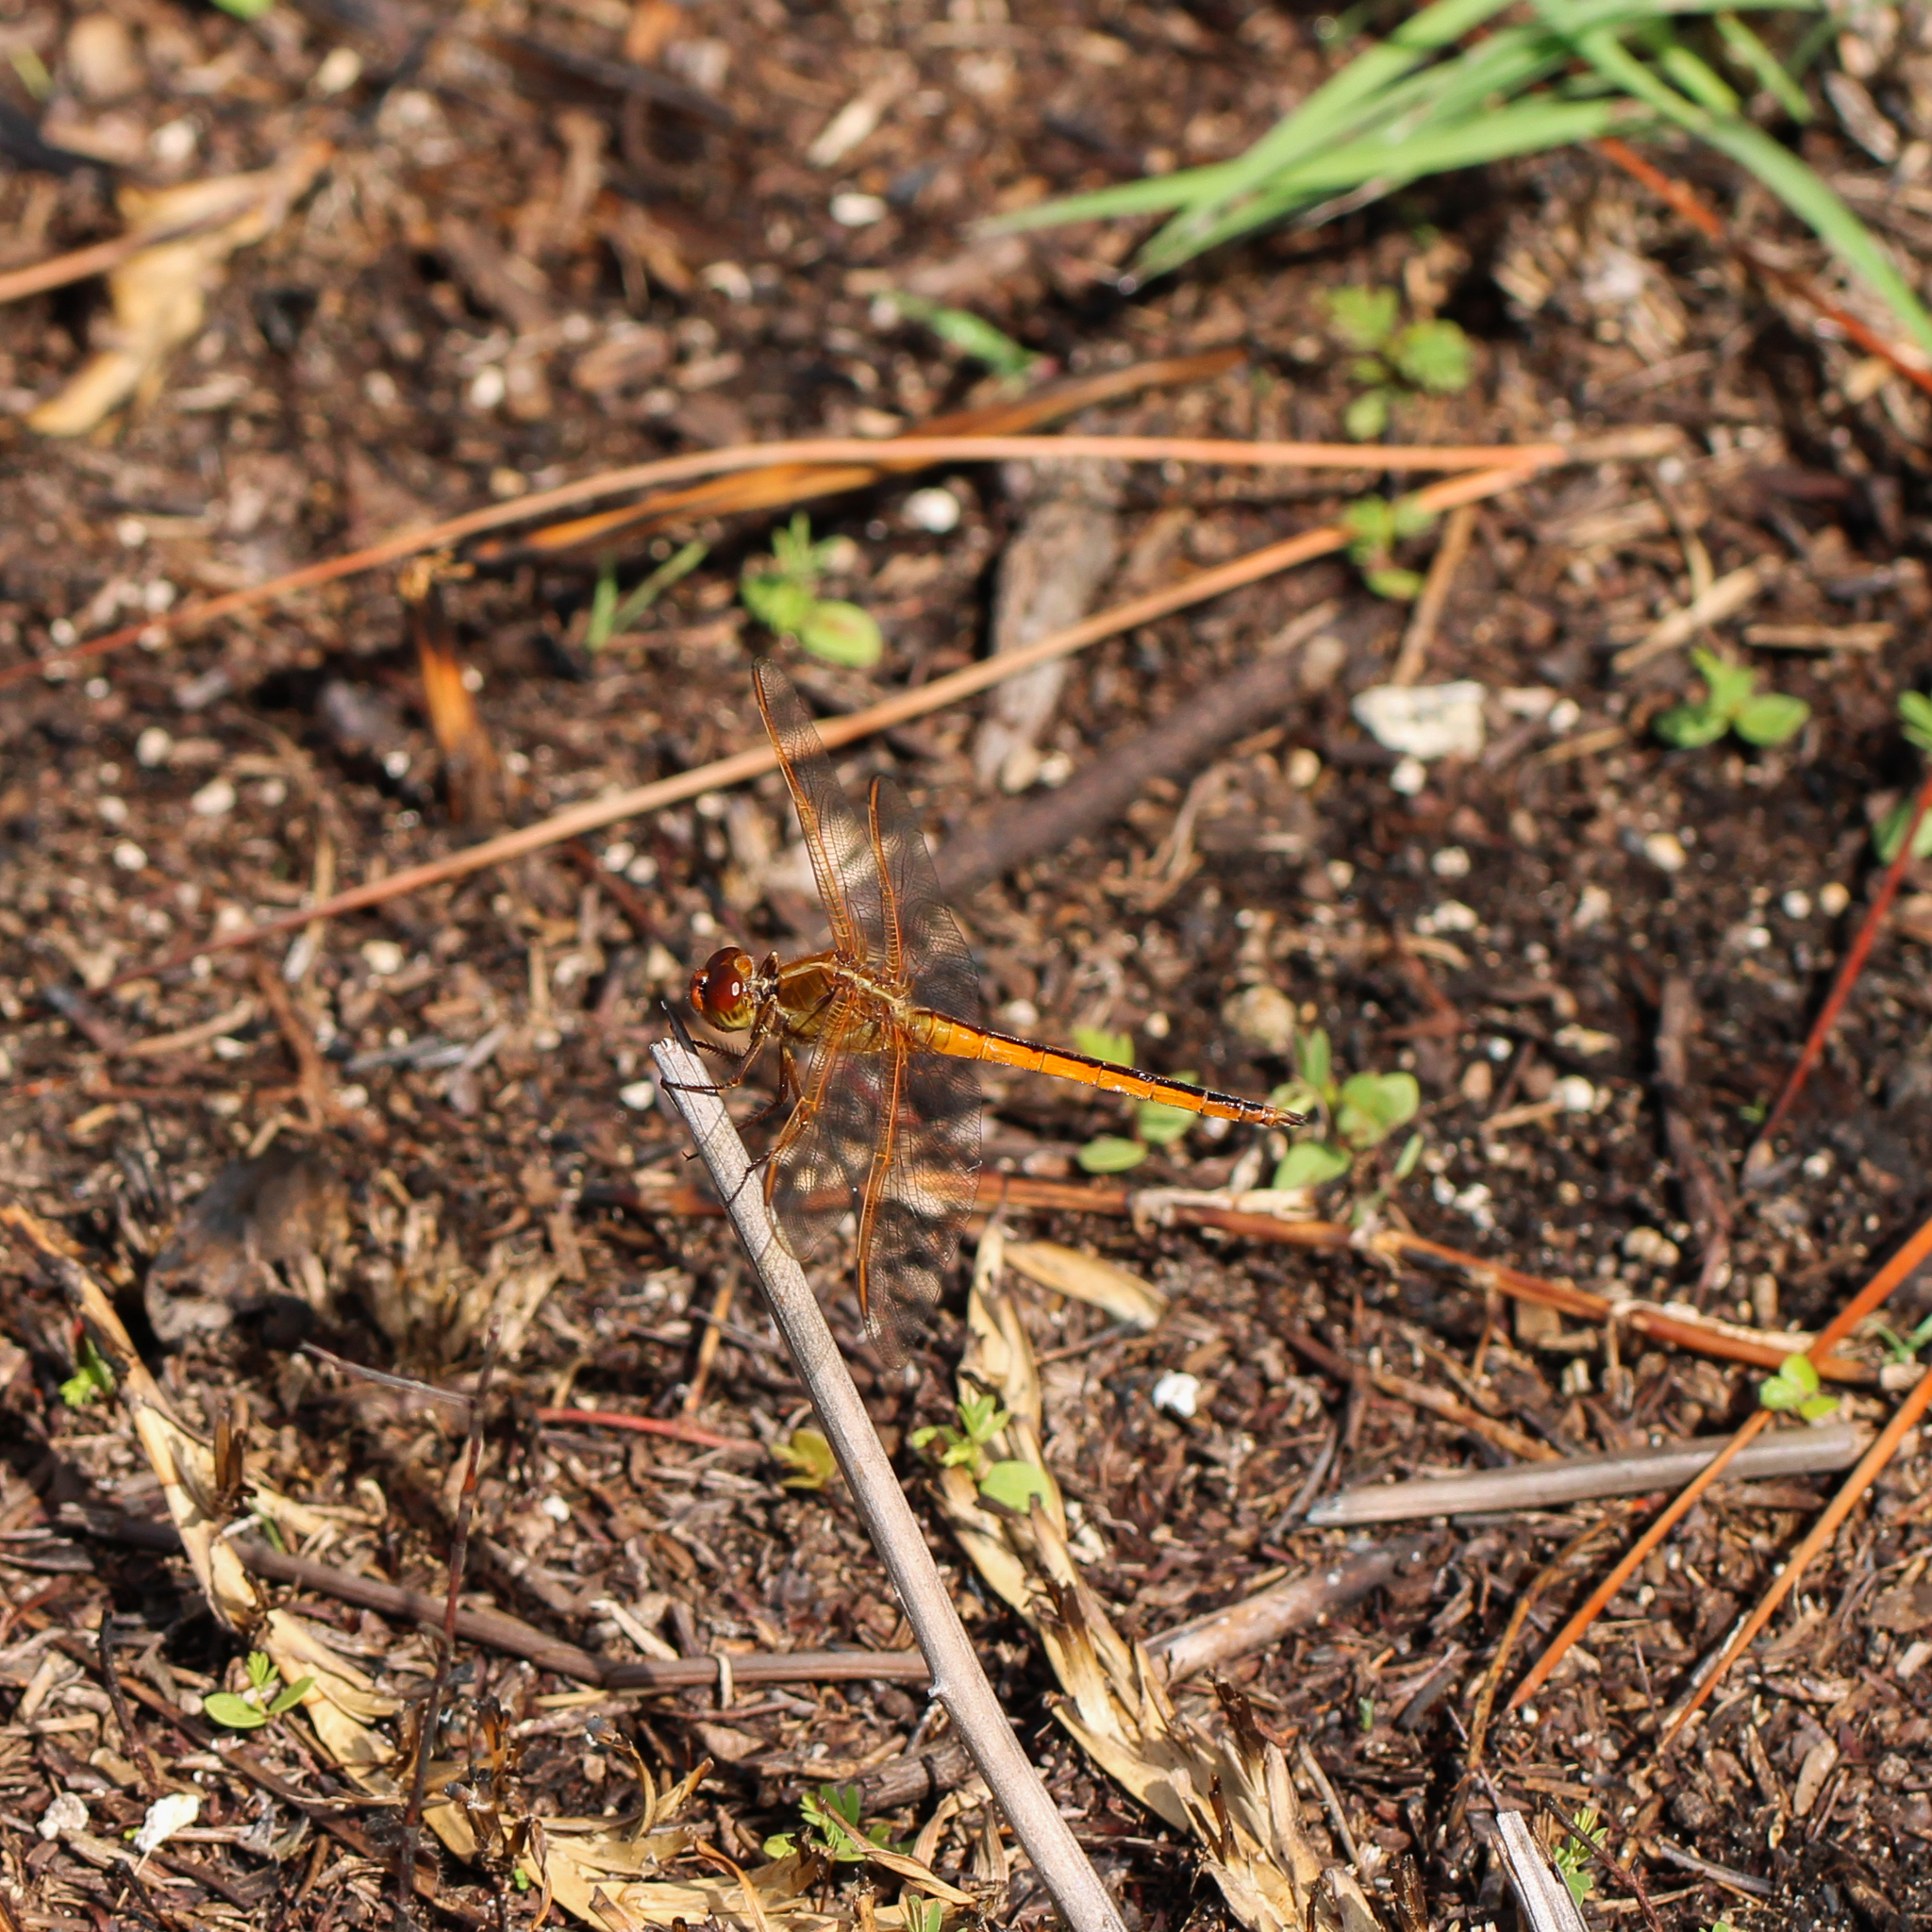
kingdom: Animalia
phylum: Arthropoda
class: Insecta
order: Odonata
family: Libellulidae
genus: Libellula
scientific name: Libellula needhami
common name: Needham's skimmer
